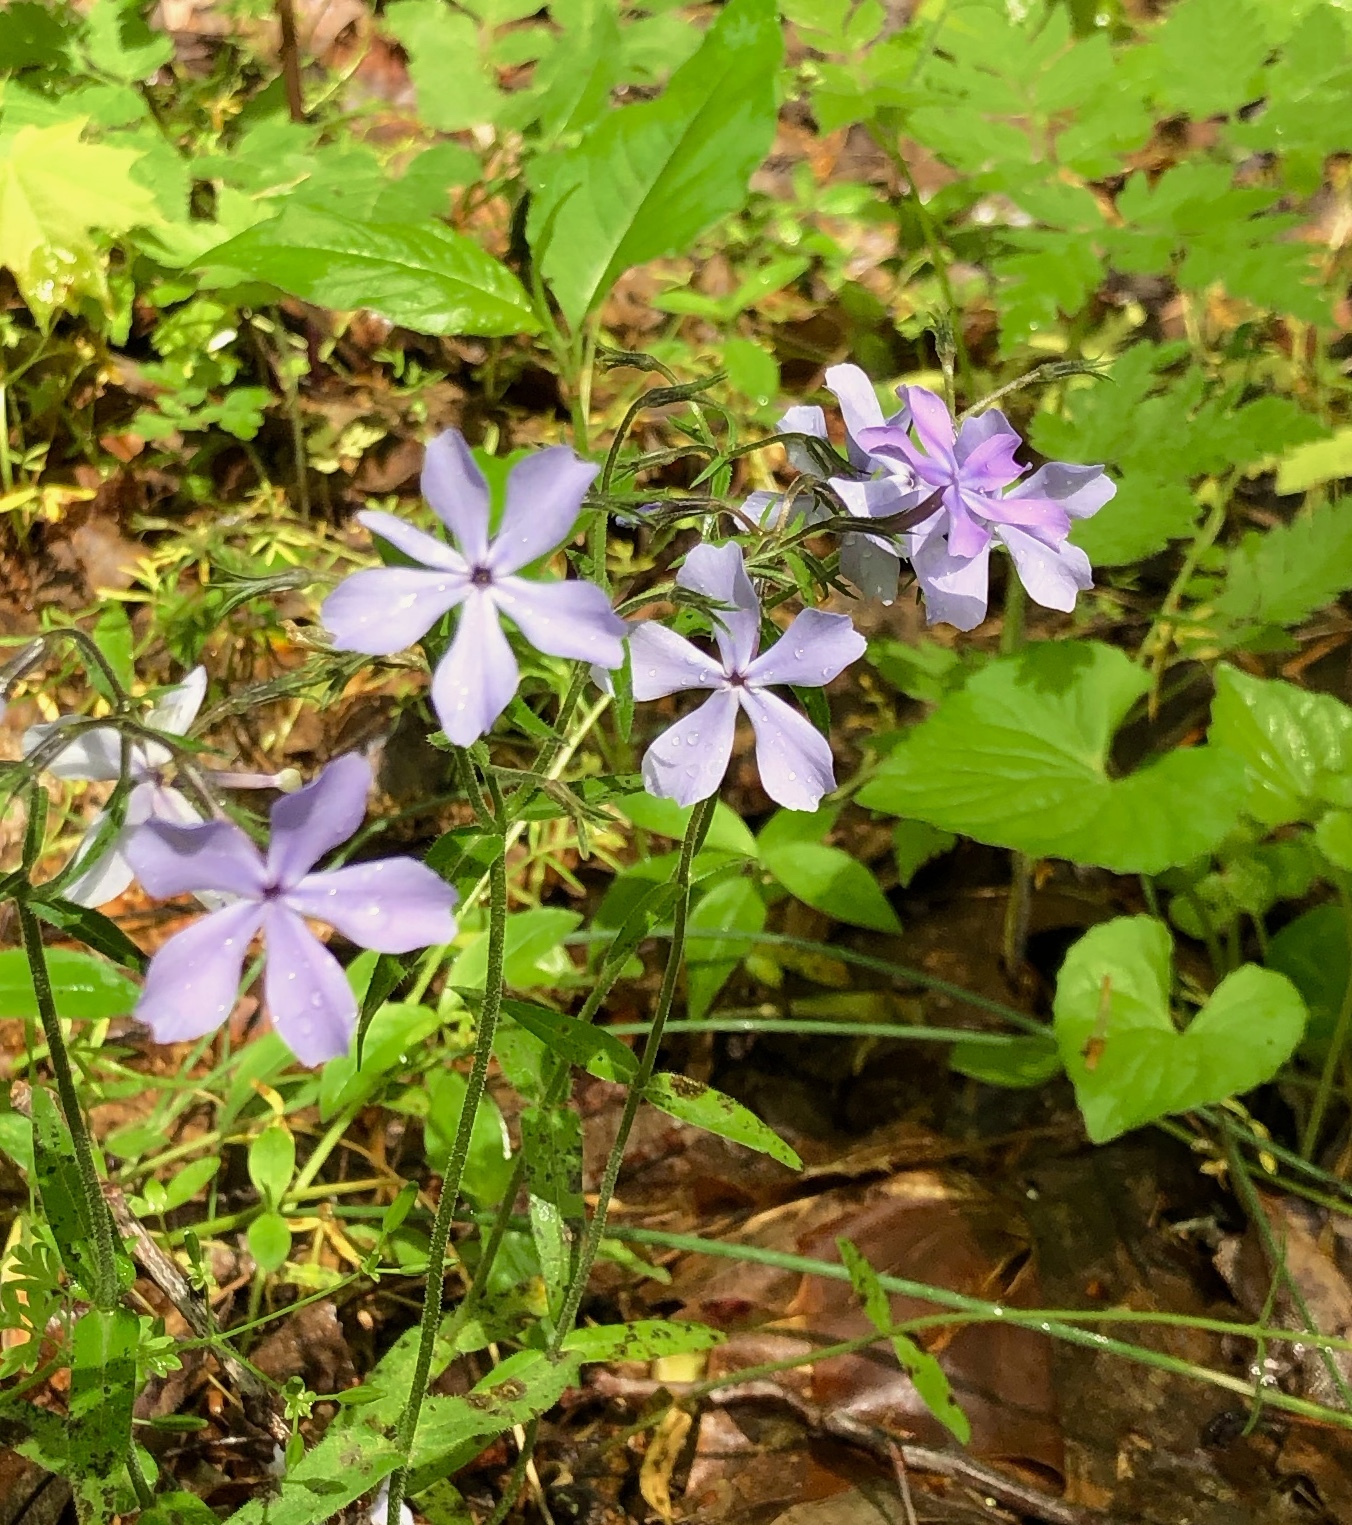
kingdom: Plantae
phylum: Tracheophyta
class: Magnoliopsida
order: Ericales
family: Polemoniaceae
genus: Phlox
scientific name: Phlox divaricata
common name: Blue phlox
